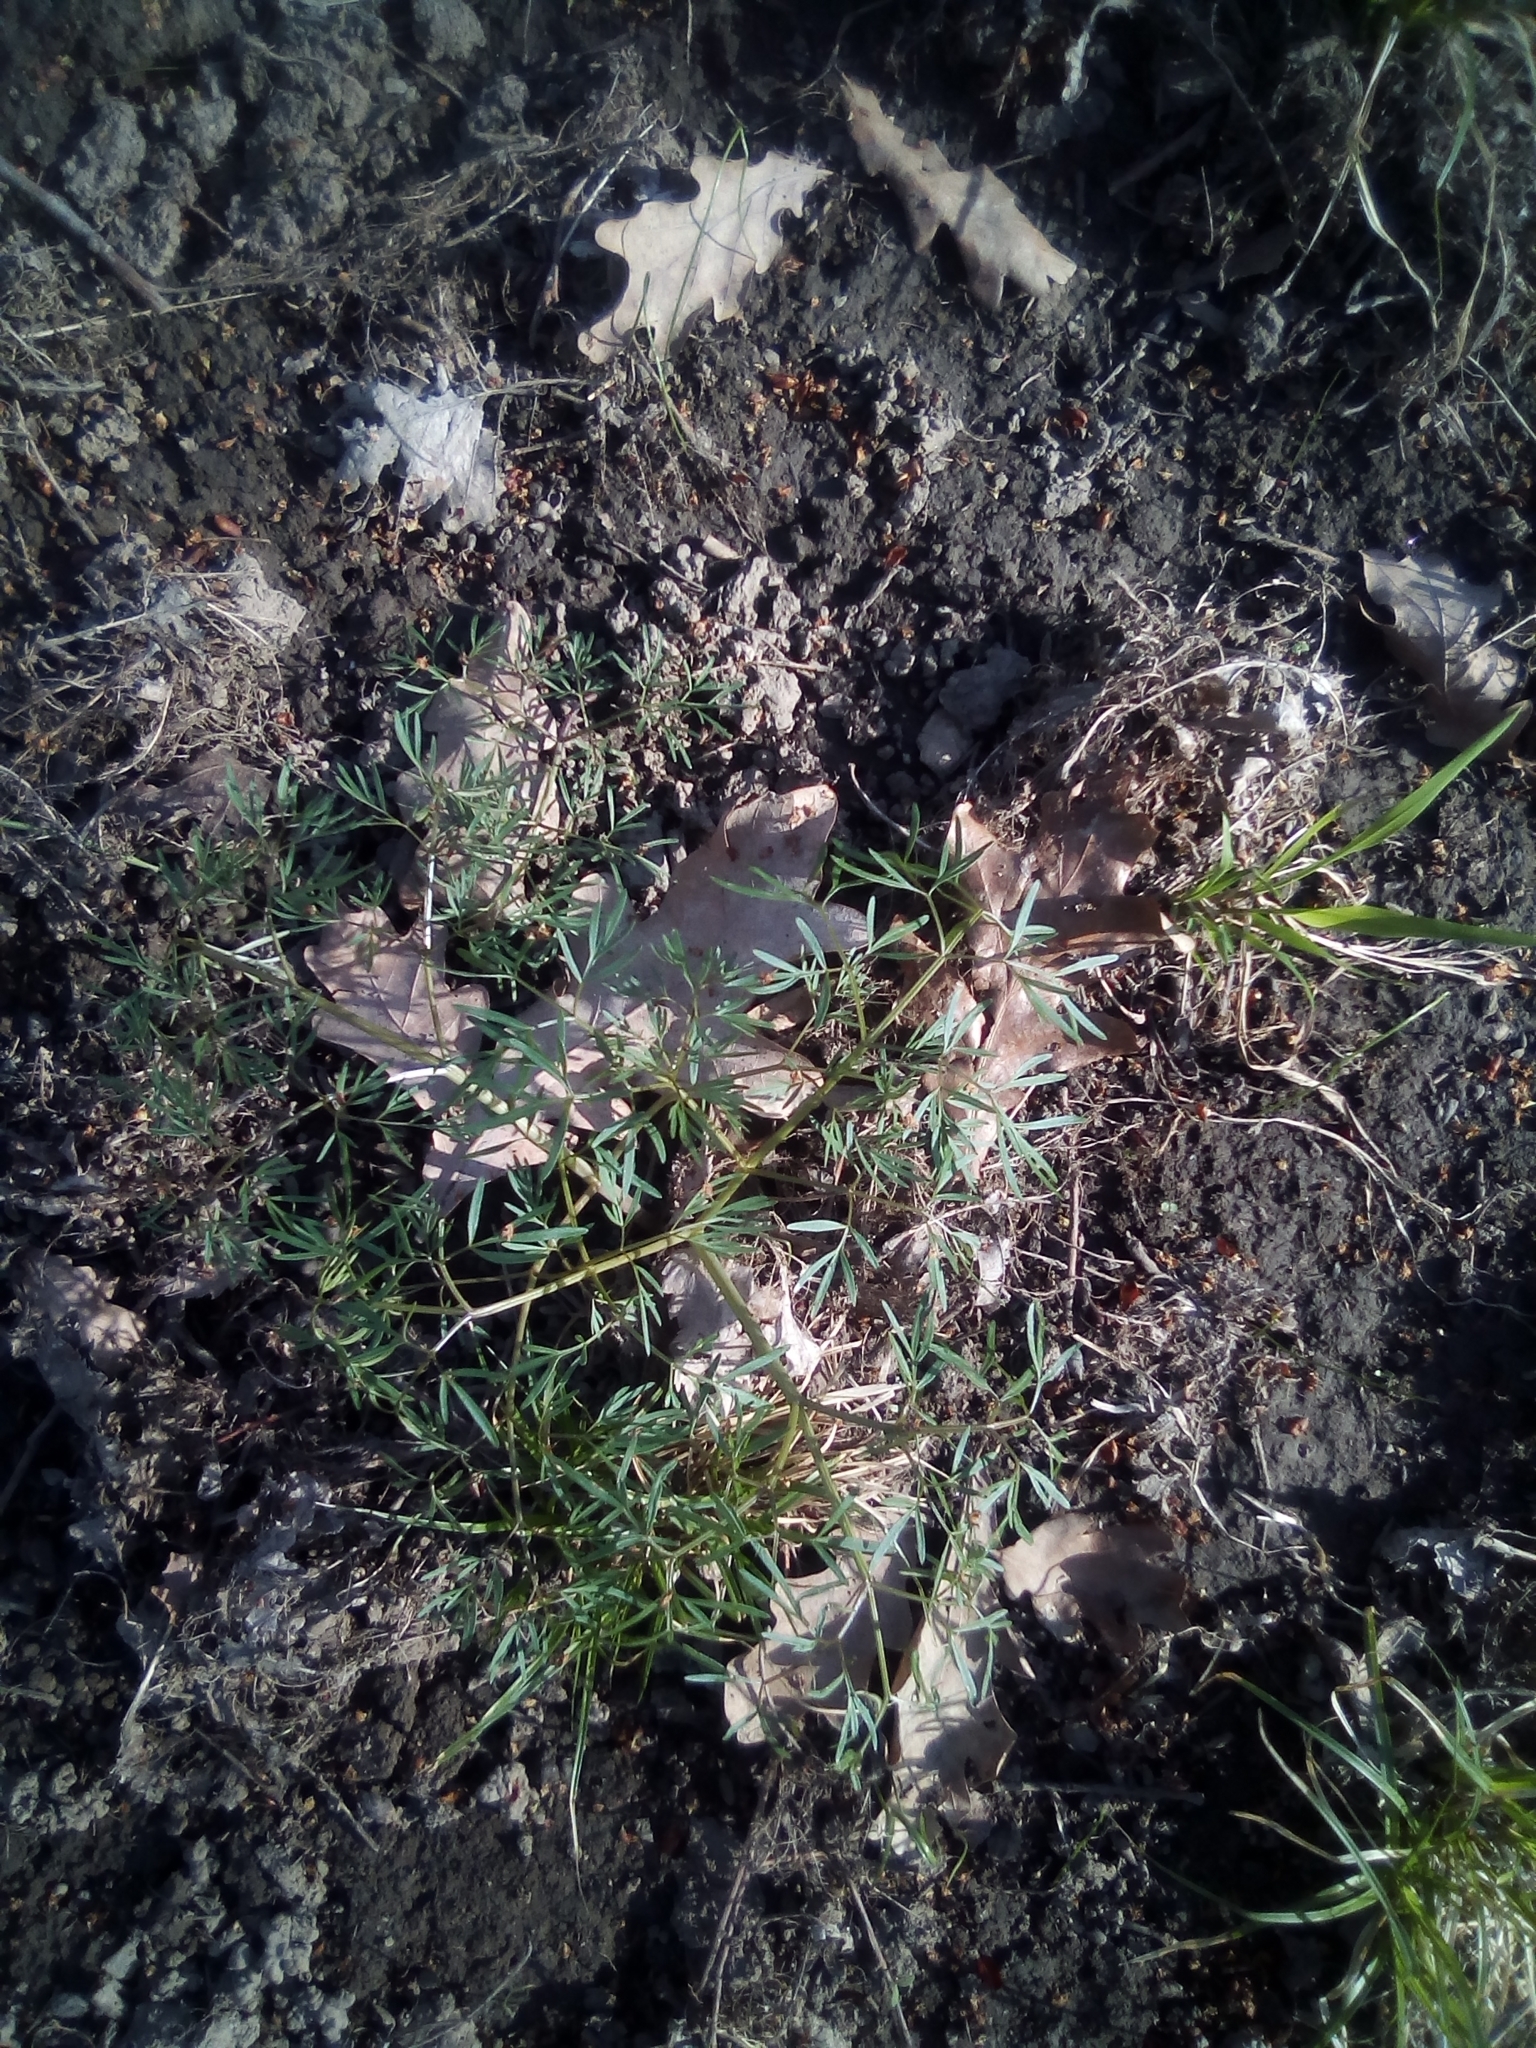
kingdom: Plantae
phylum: Tracheophyta
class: Magnoliopsida
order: Apiales
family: Apiaceae
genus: Elwendia
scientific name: Elwendia setacea
